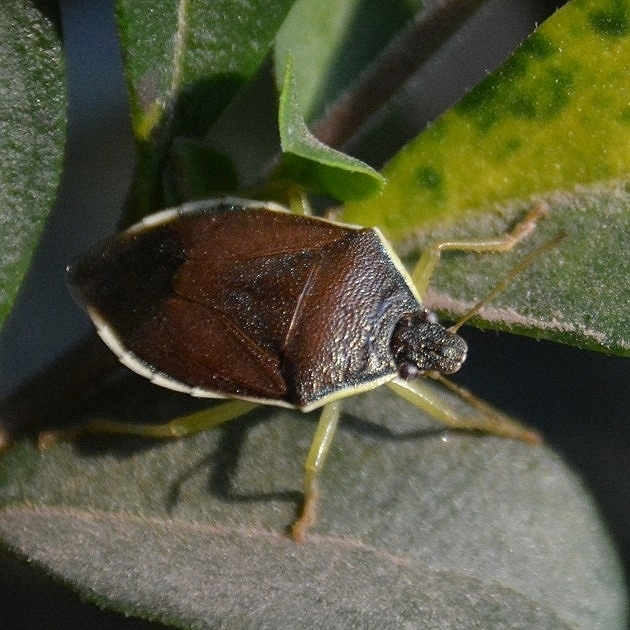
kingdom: Animalia
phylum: Arthropoda
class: Insecta
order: Hemiptera
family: Pentatomidae
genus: Tynacantha
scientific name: Tynacantha marginata
